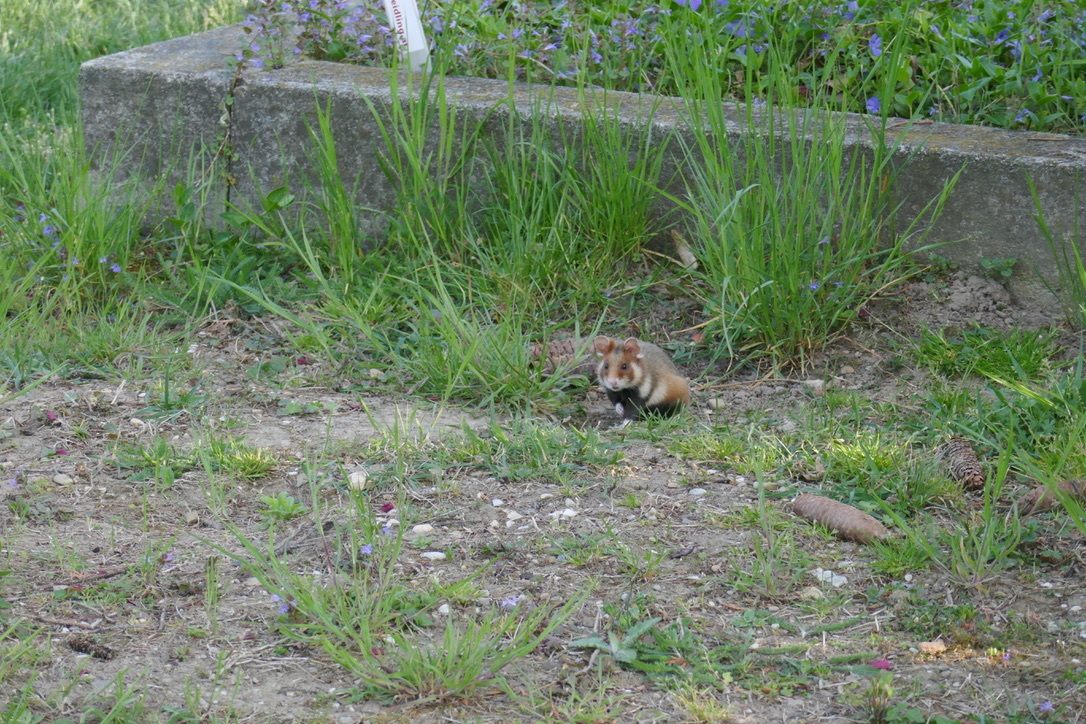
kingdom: Animalia
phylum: Chordata
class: Mammalia
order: Rodentia
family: Cricetidae
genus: Cricetus
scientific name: Cricetus cricetus
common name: Common hamster
